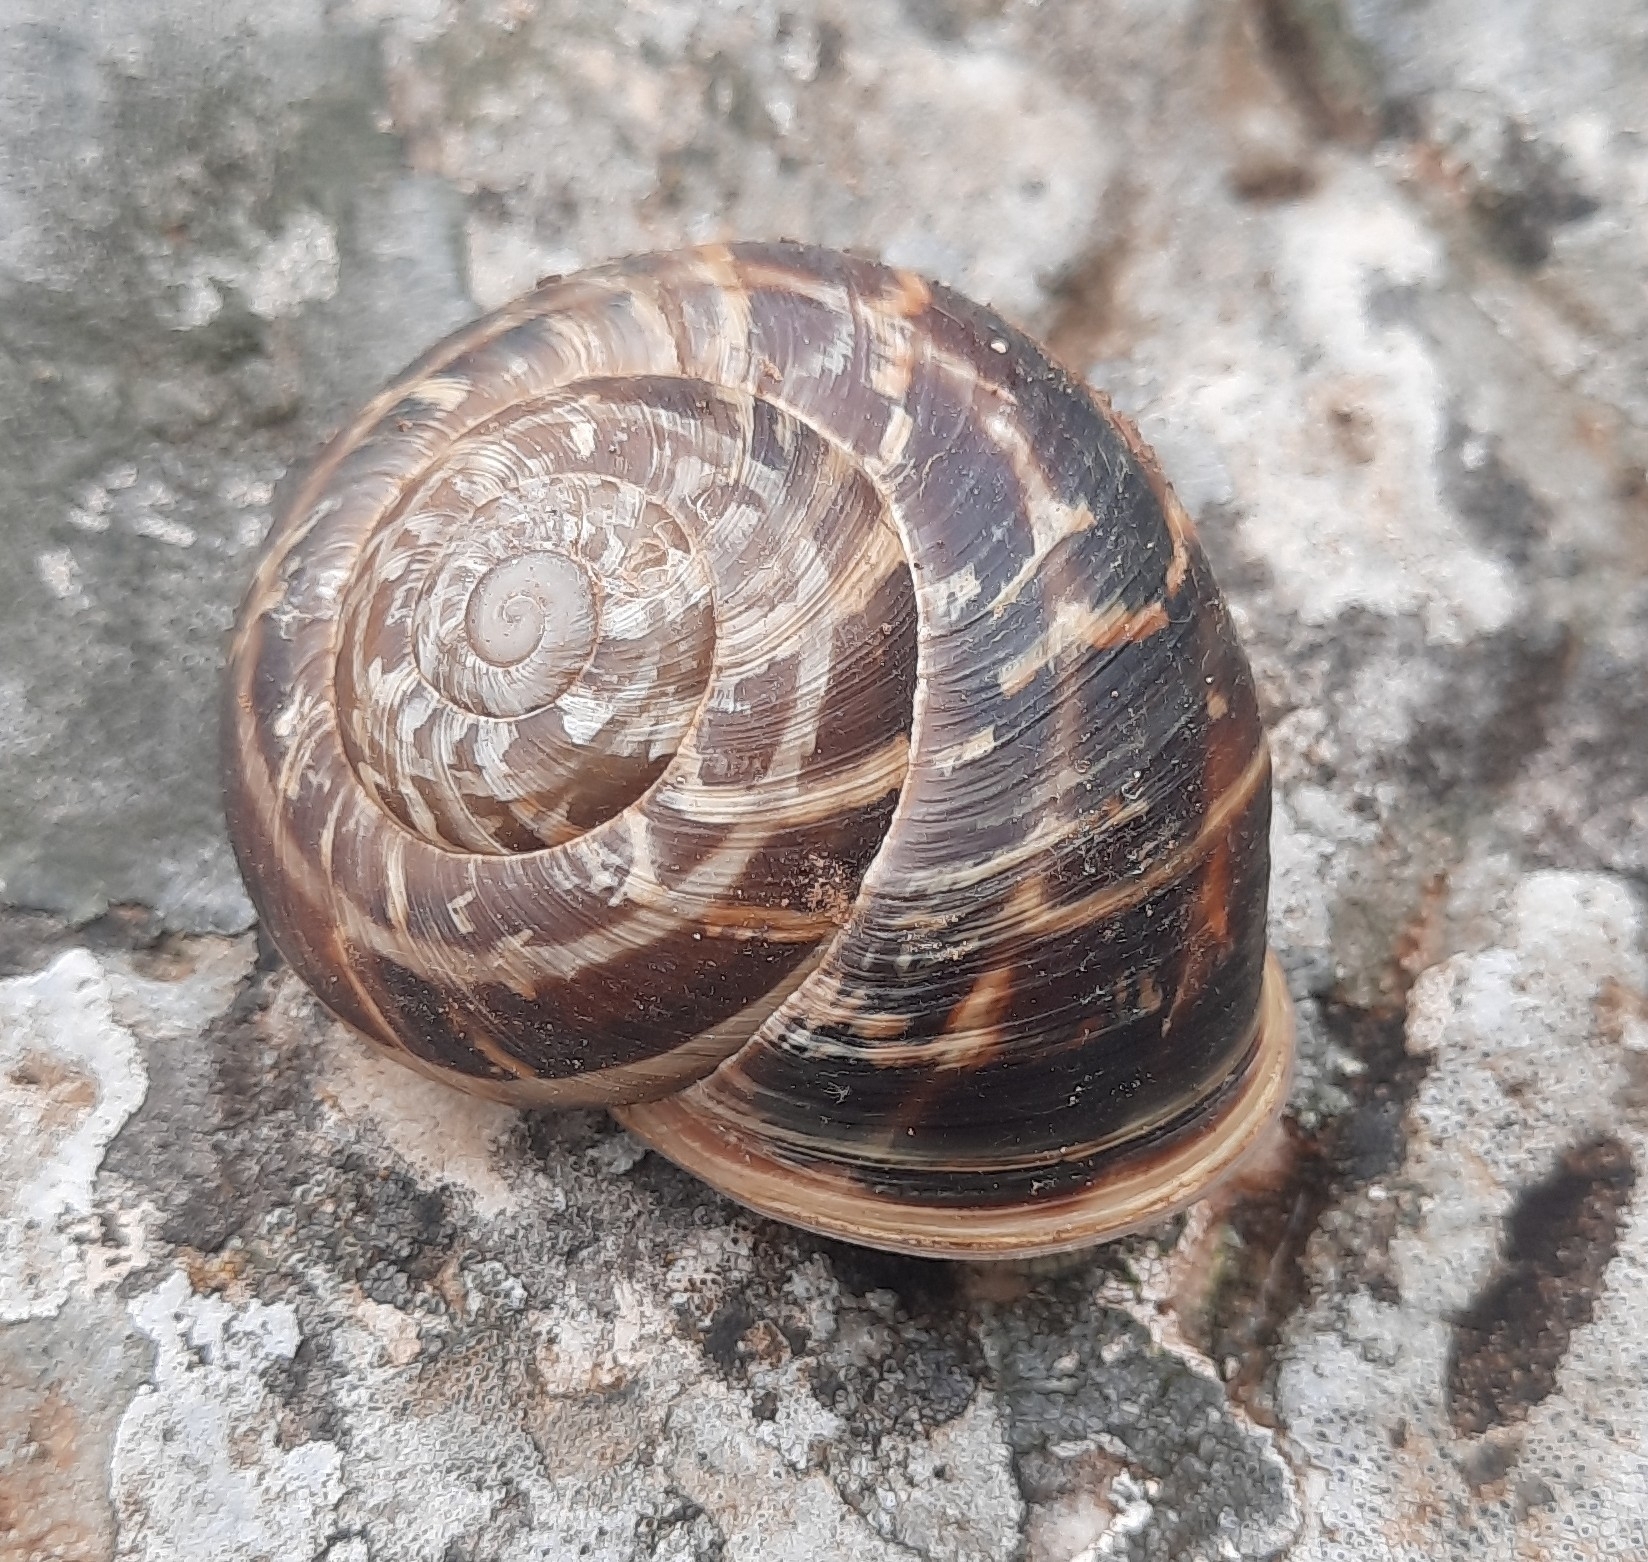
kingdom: Animalia
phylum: Mollusca
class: Gastropoda
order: Stylommatophora
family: Helicidae
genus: Codringtonia
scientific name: Codringtonia eucineta
